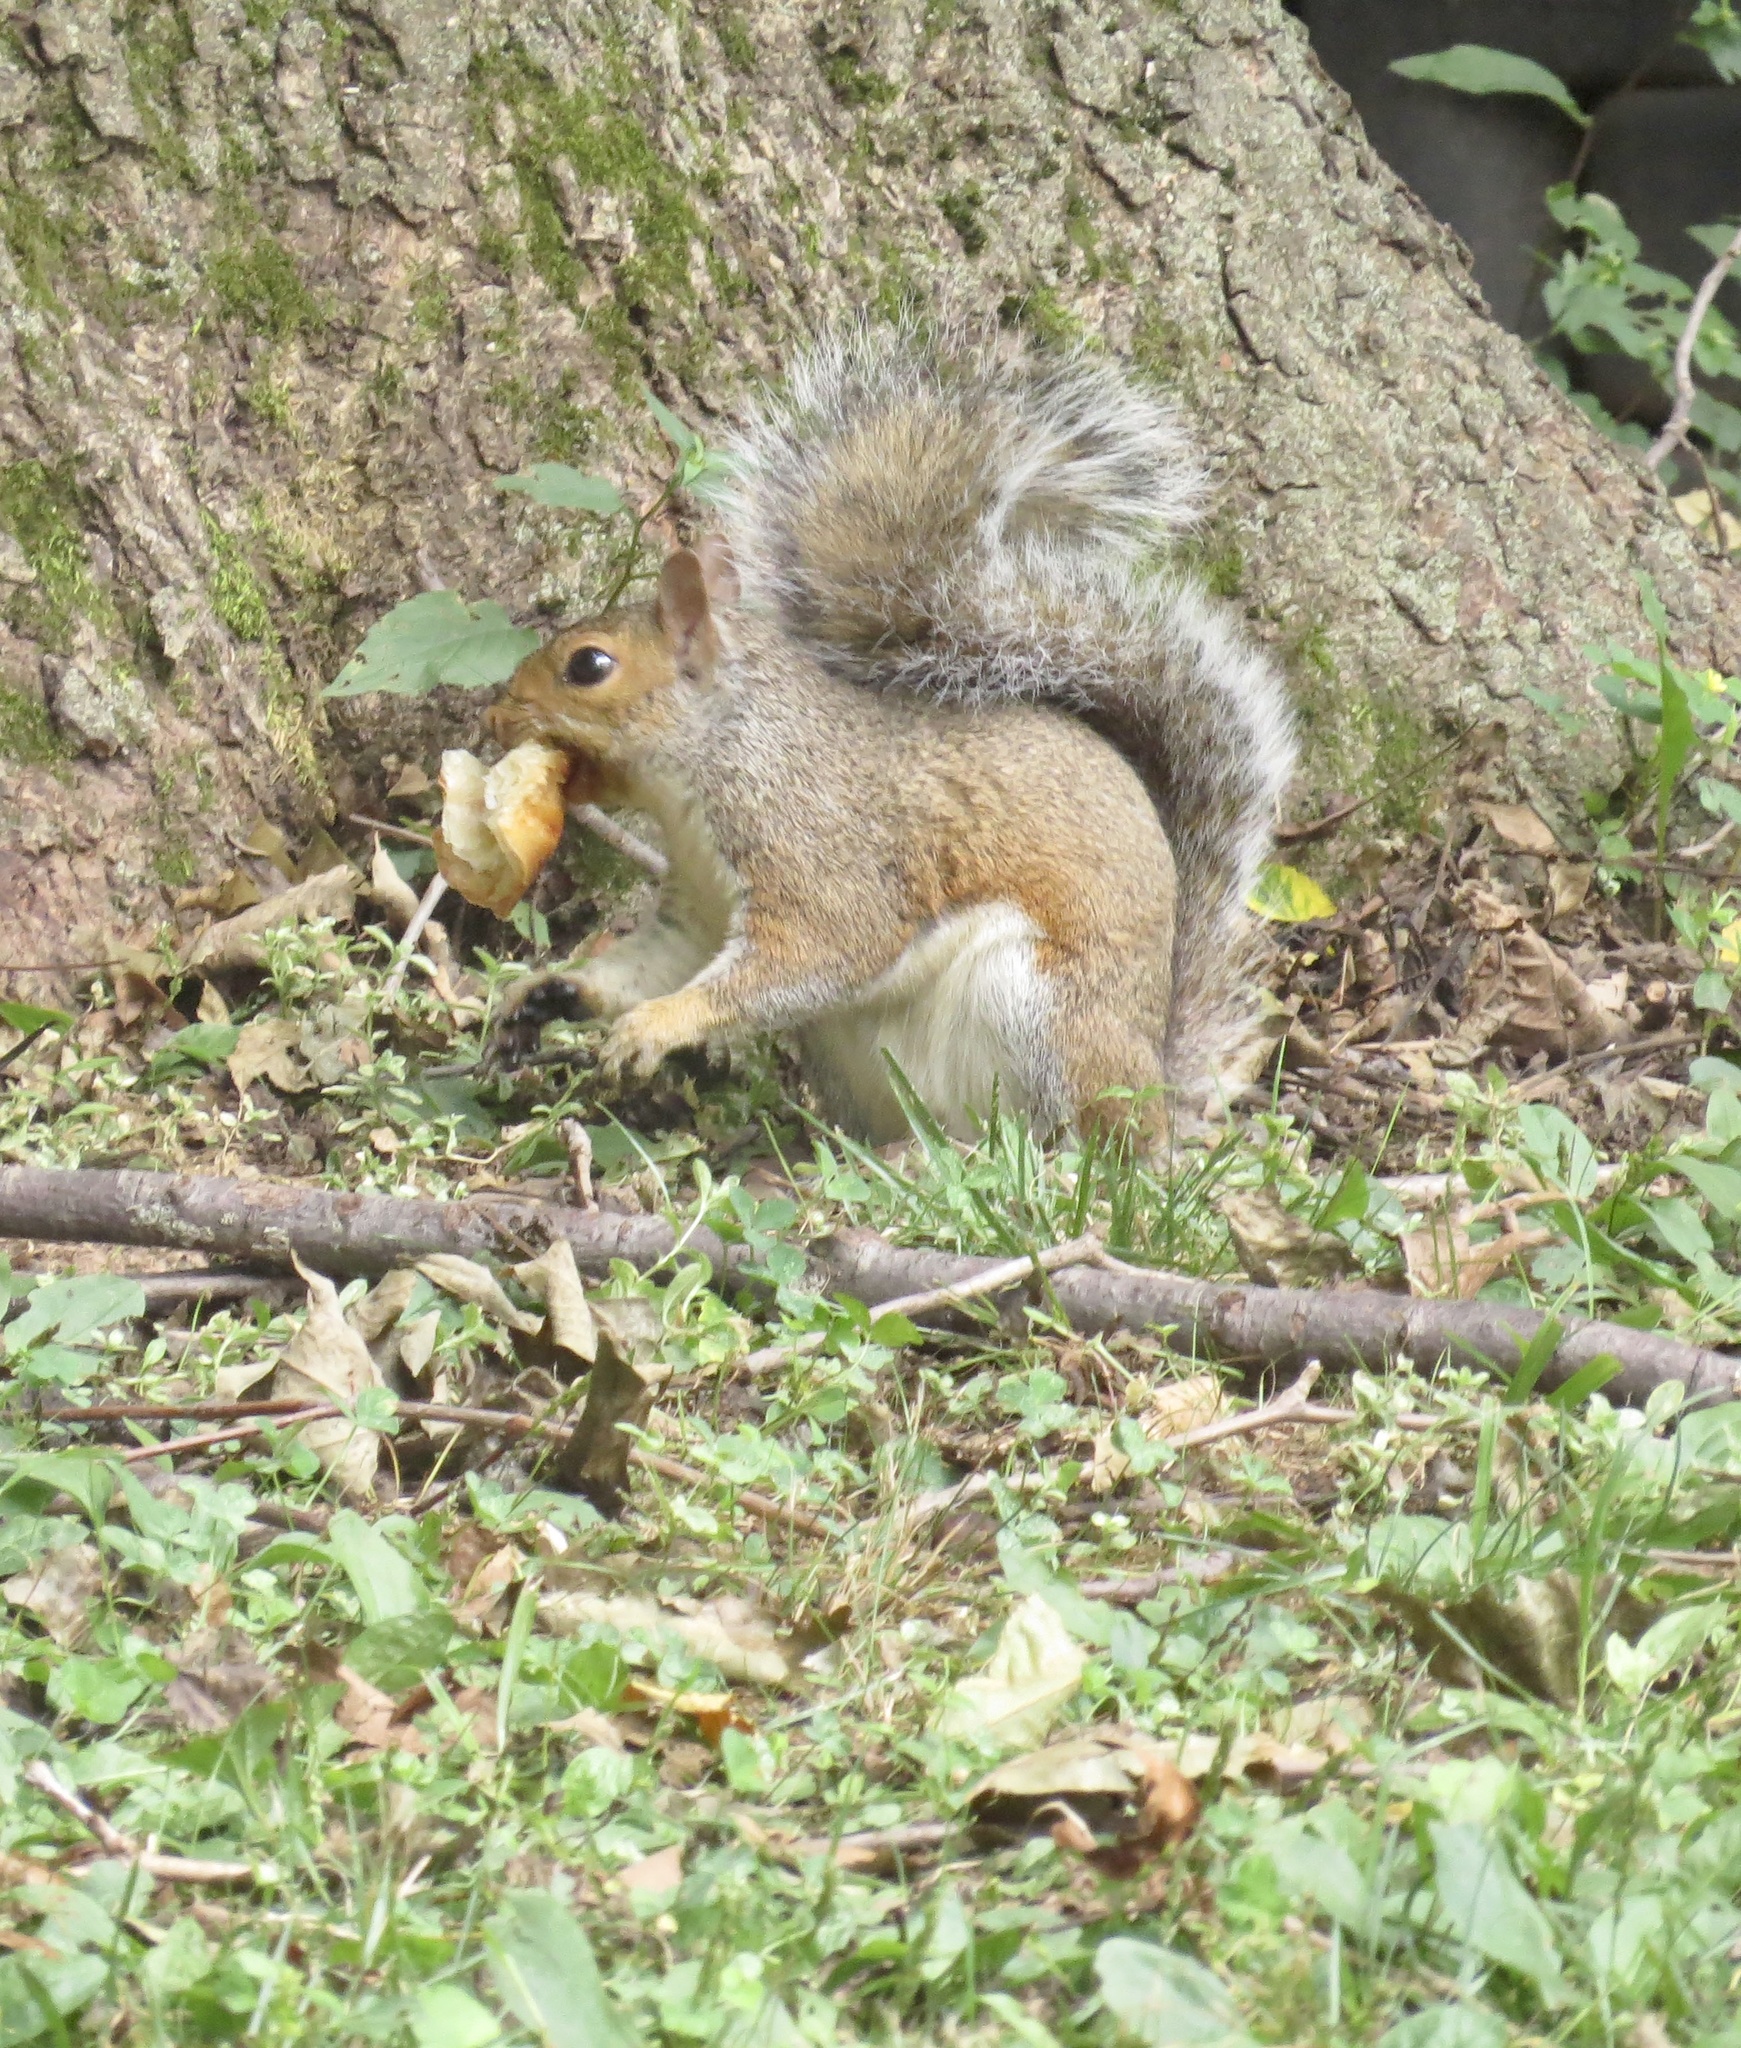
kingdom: Animalia
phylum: Chordata
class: Mammalia
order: Rodentia
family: Sciuridae
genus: Sciurus
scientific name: Sciurus carolinensis
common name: Eastern gray squirrel
